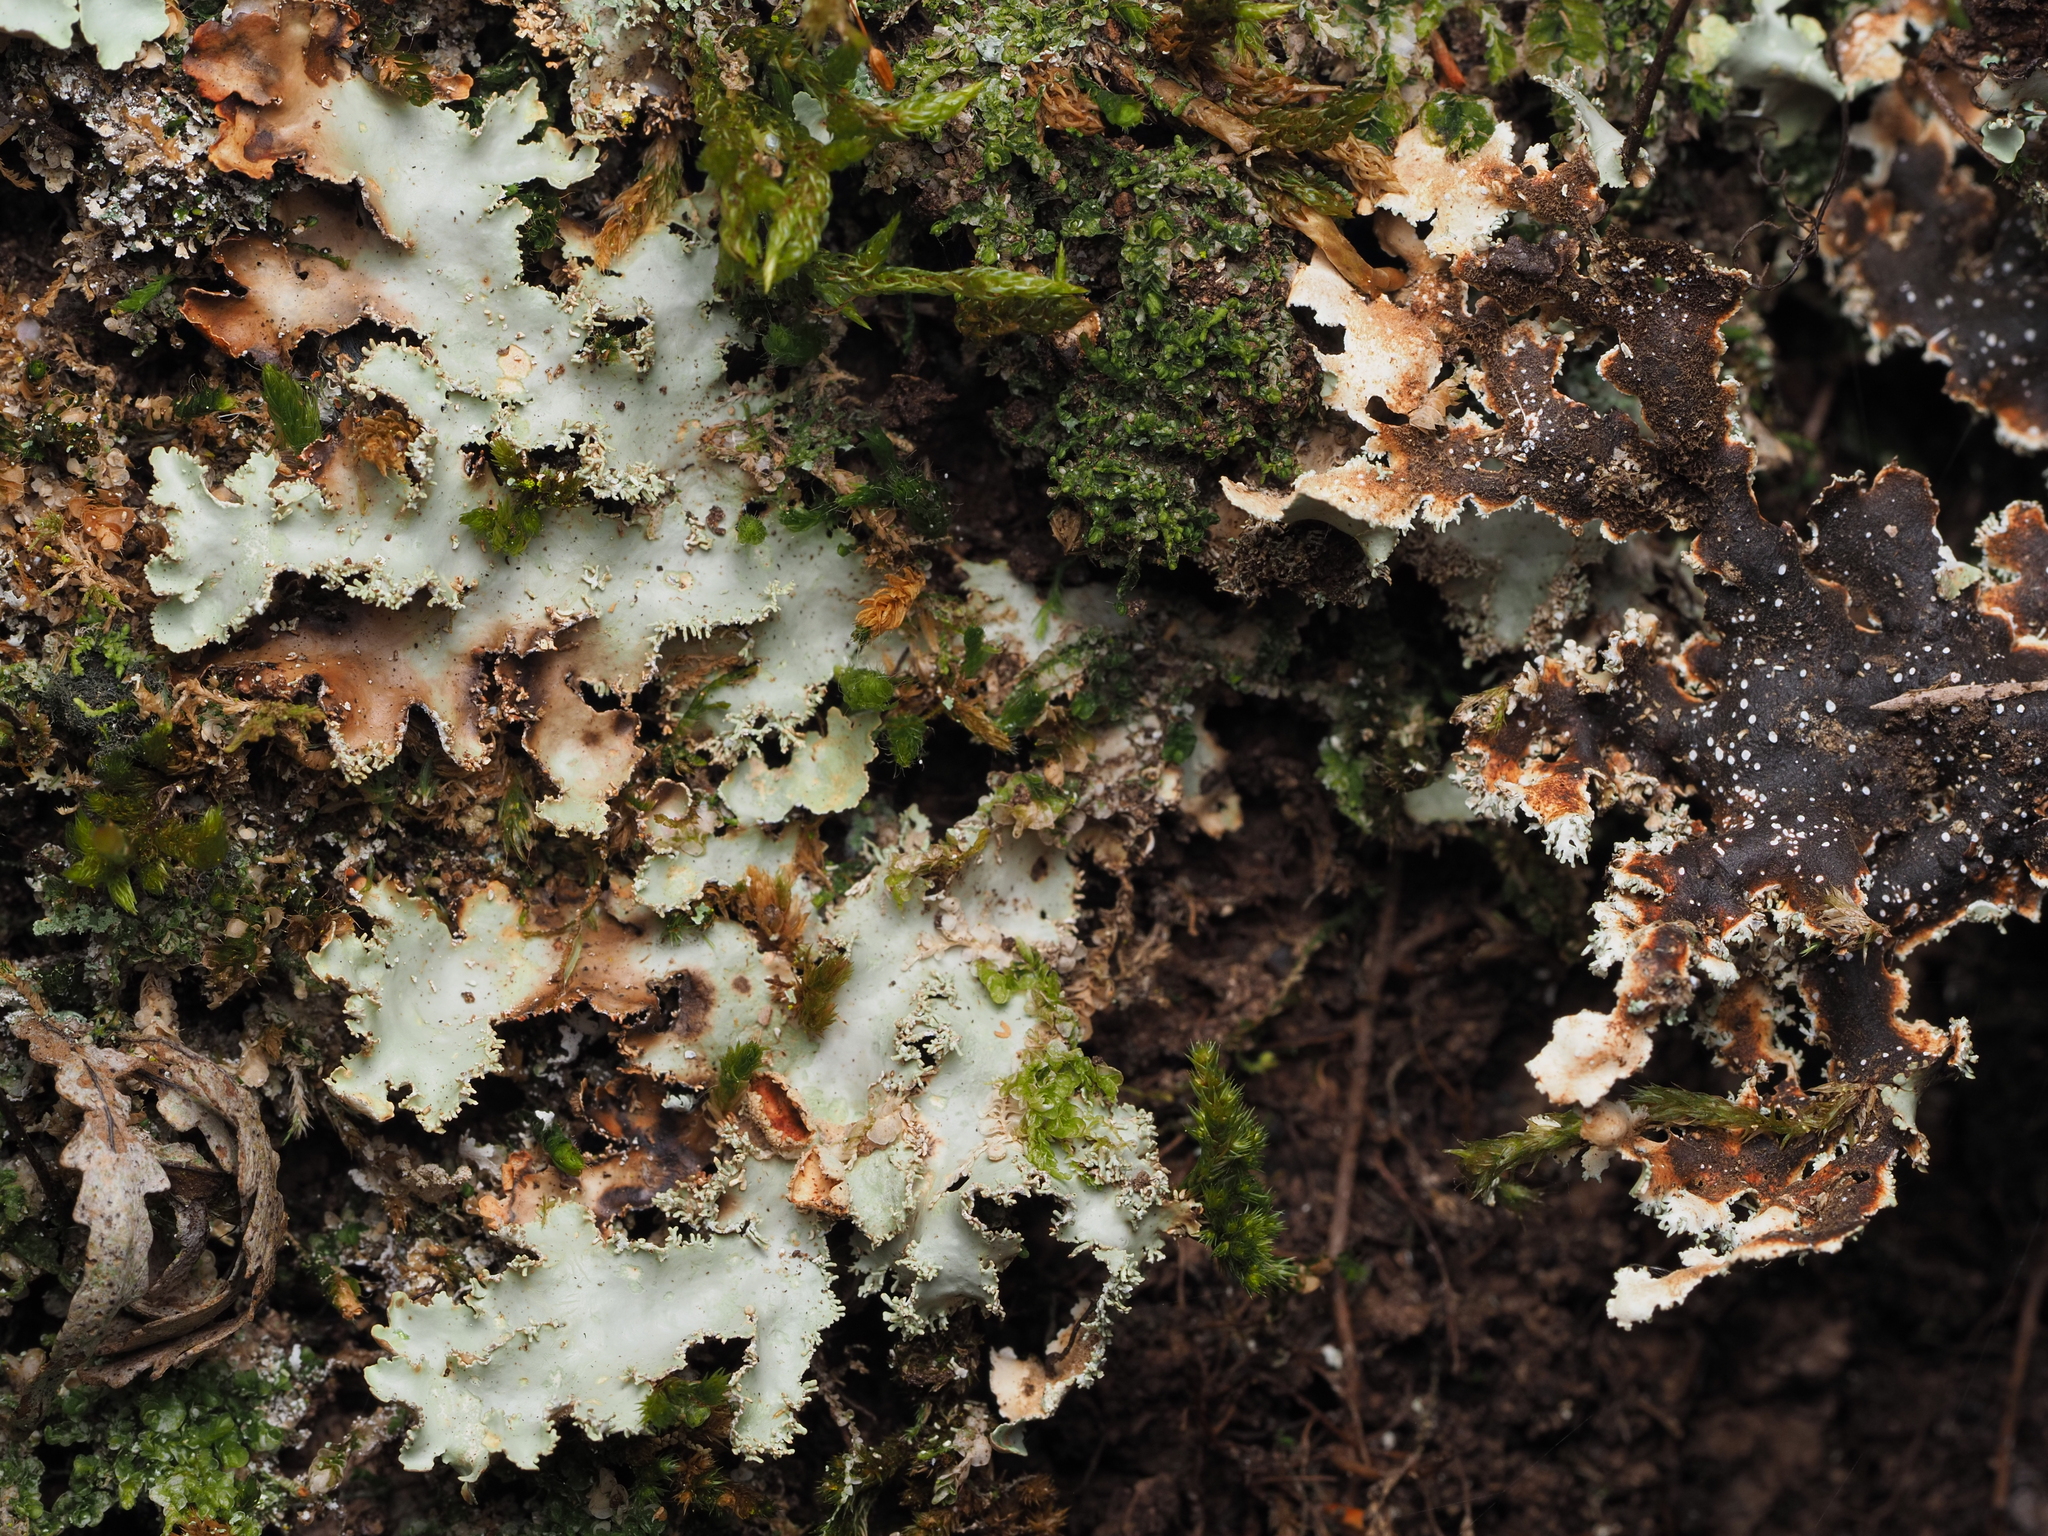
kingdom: Fungi
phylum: Ascomycota
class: Lecanoromycetes
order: Peltigerales
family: Lobariaceae
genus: Pseudocyphellaria
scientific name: Pseudocyphellaria glabra
